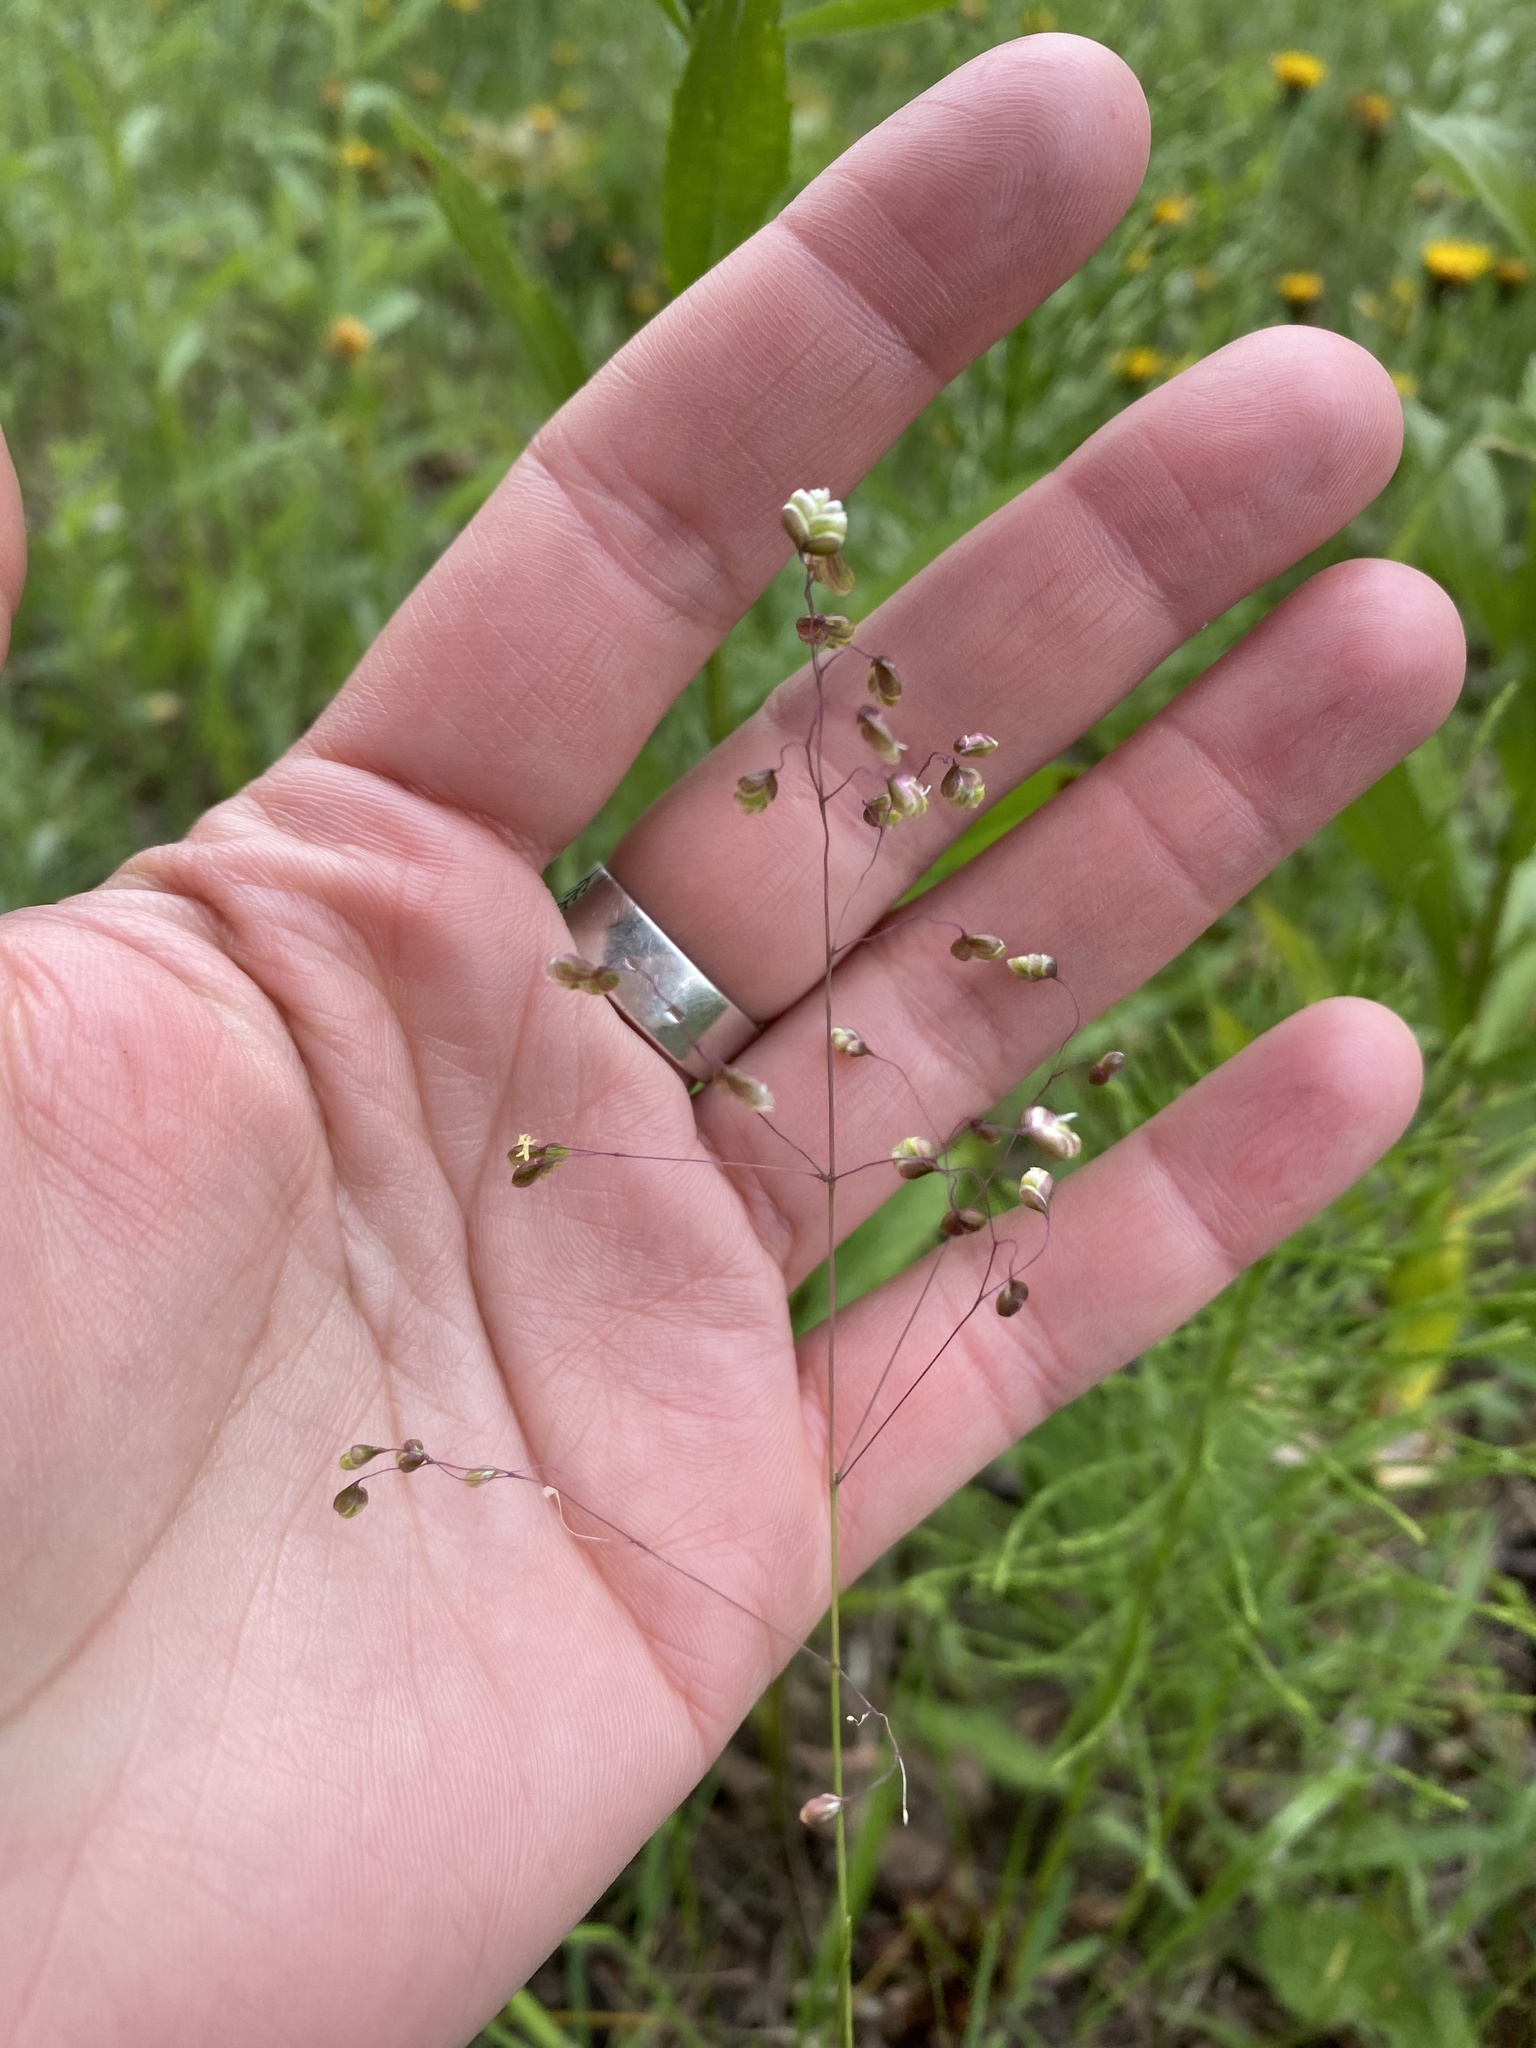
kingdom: Plantae
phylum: Tracheophyta
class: Liliopsida
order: Poales
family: Poaceae
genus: Briza
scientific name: Briza media
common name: Quaking grass
